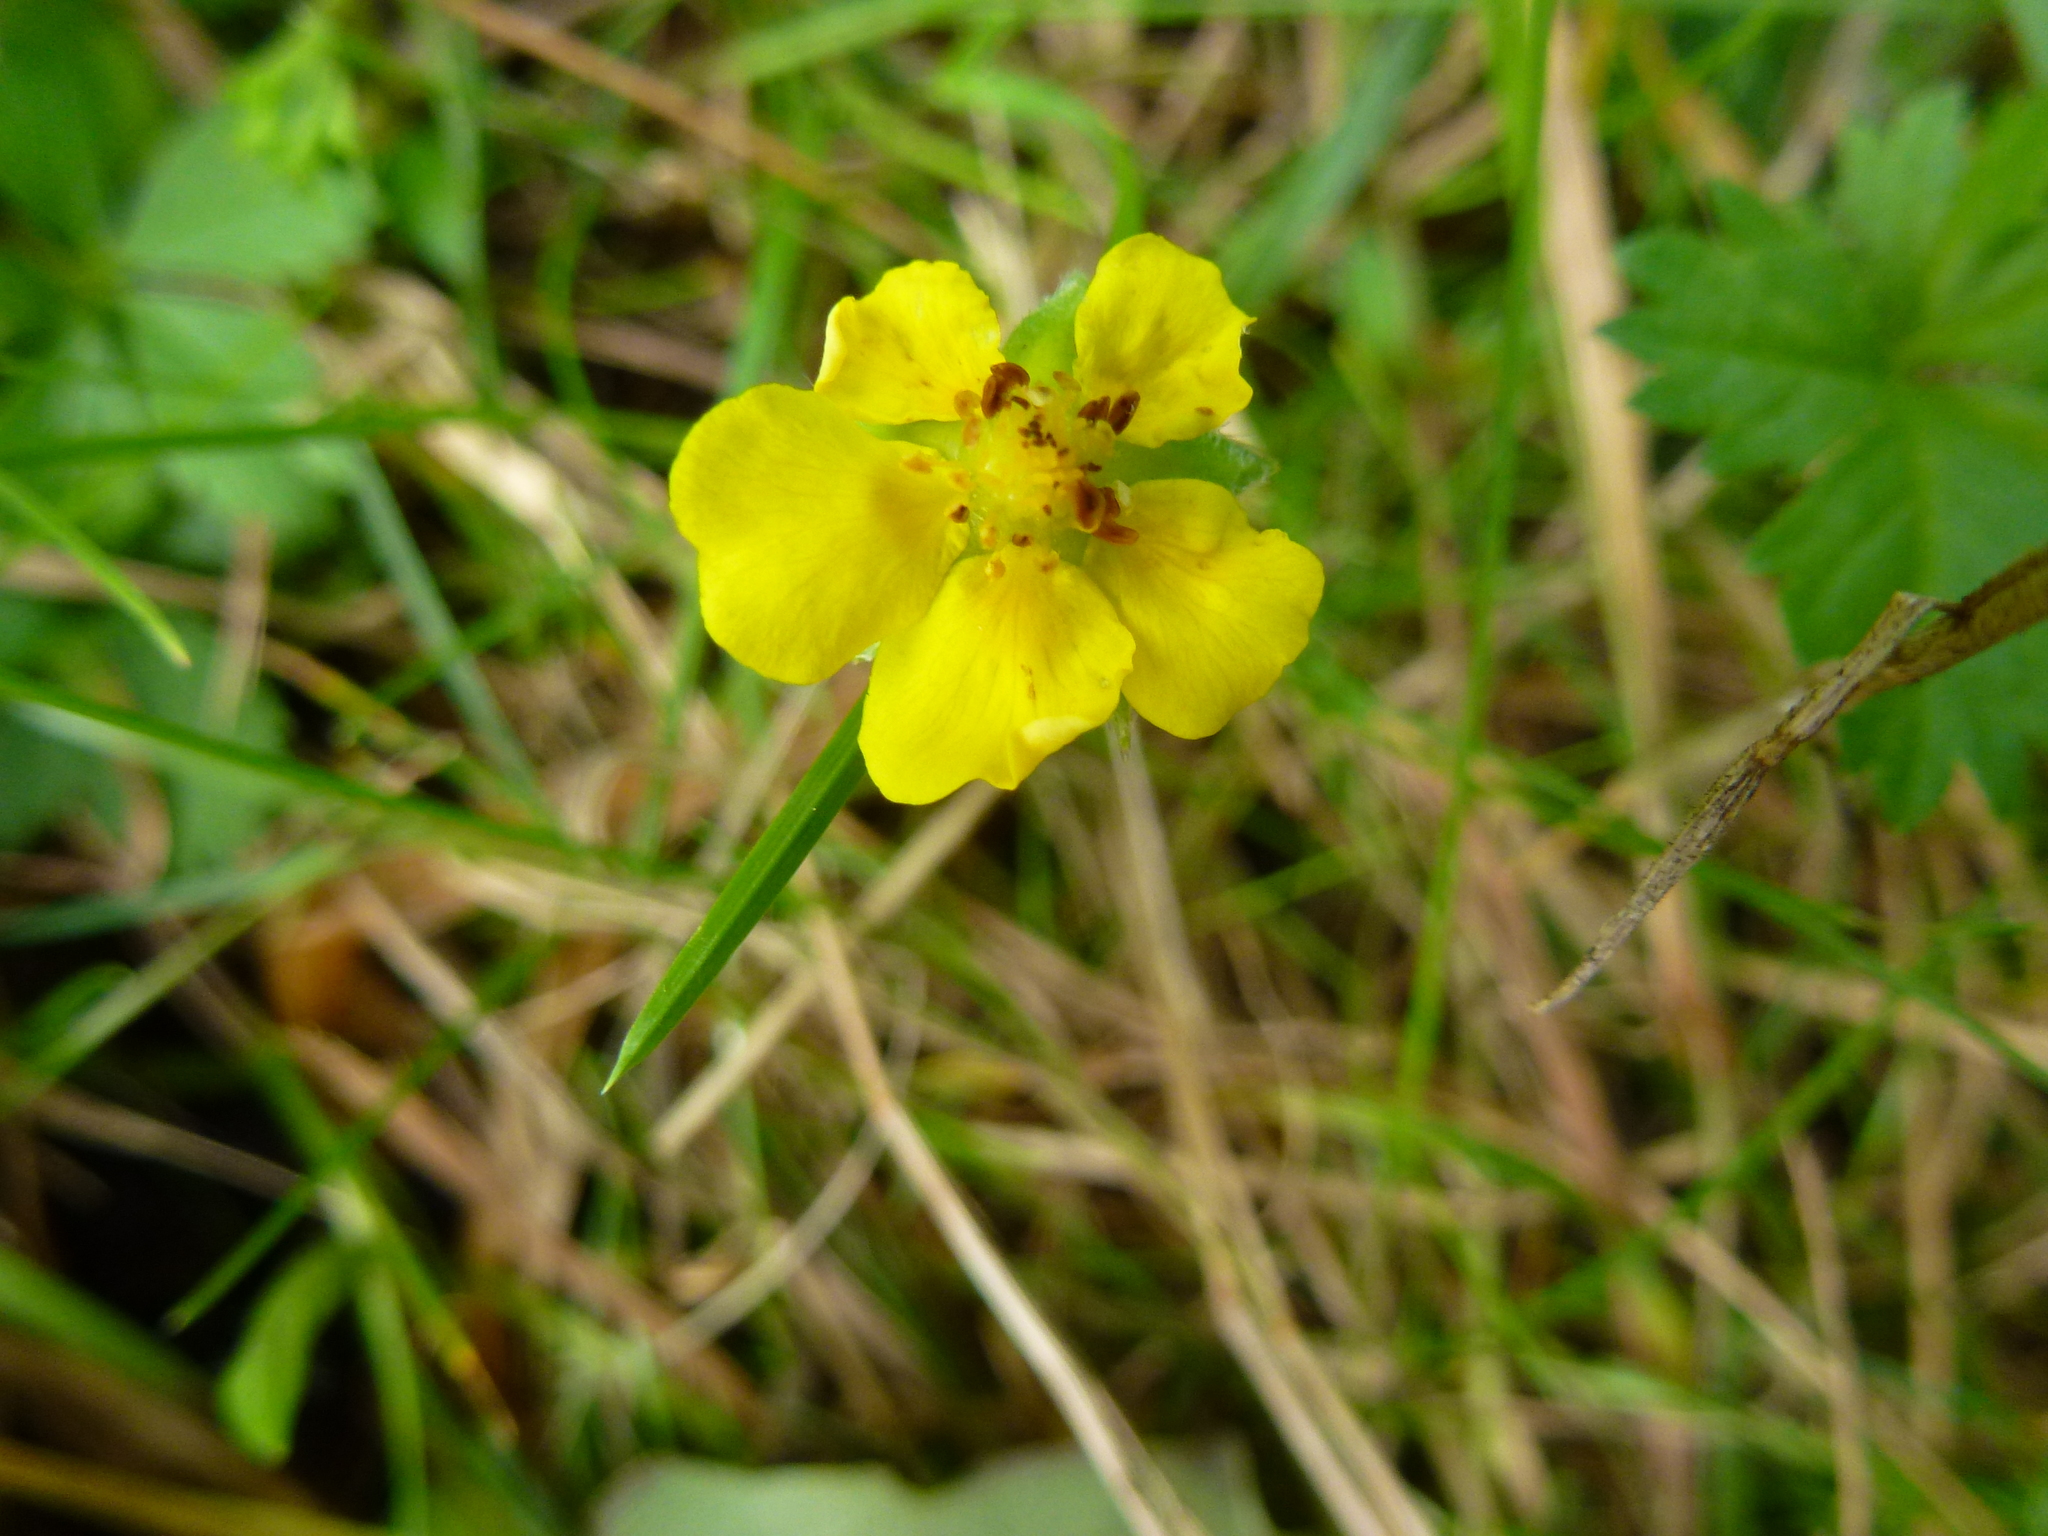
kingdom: Plantae
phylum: Tracheophyta
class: Magnoliopsida
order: Rosales
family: Rosaceae
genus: Potentilla
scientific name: Potentilla reptans
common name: Creeping cinquefoil
